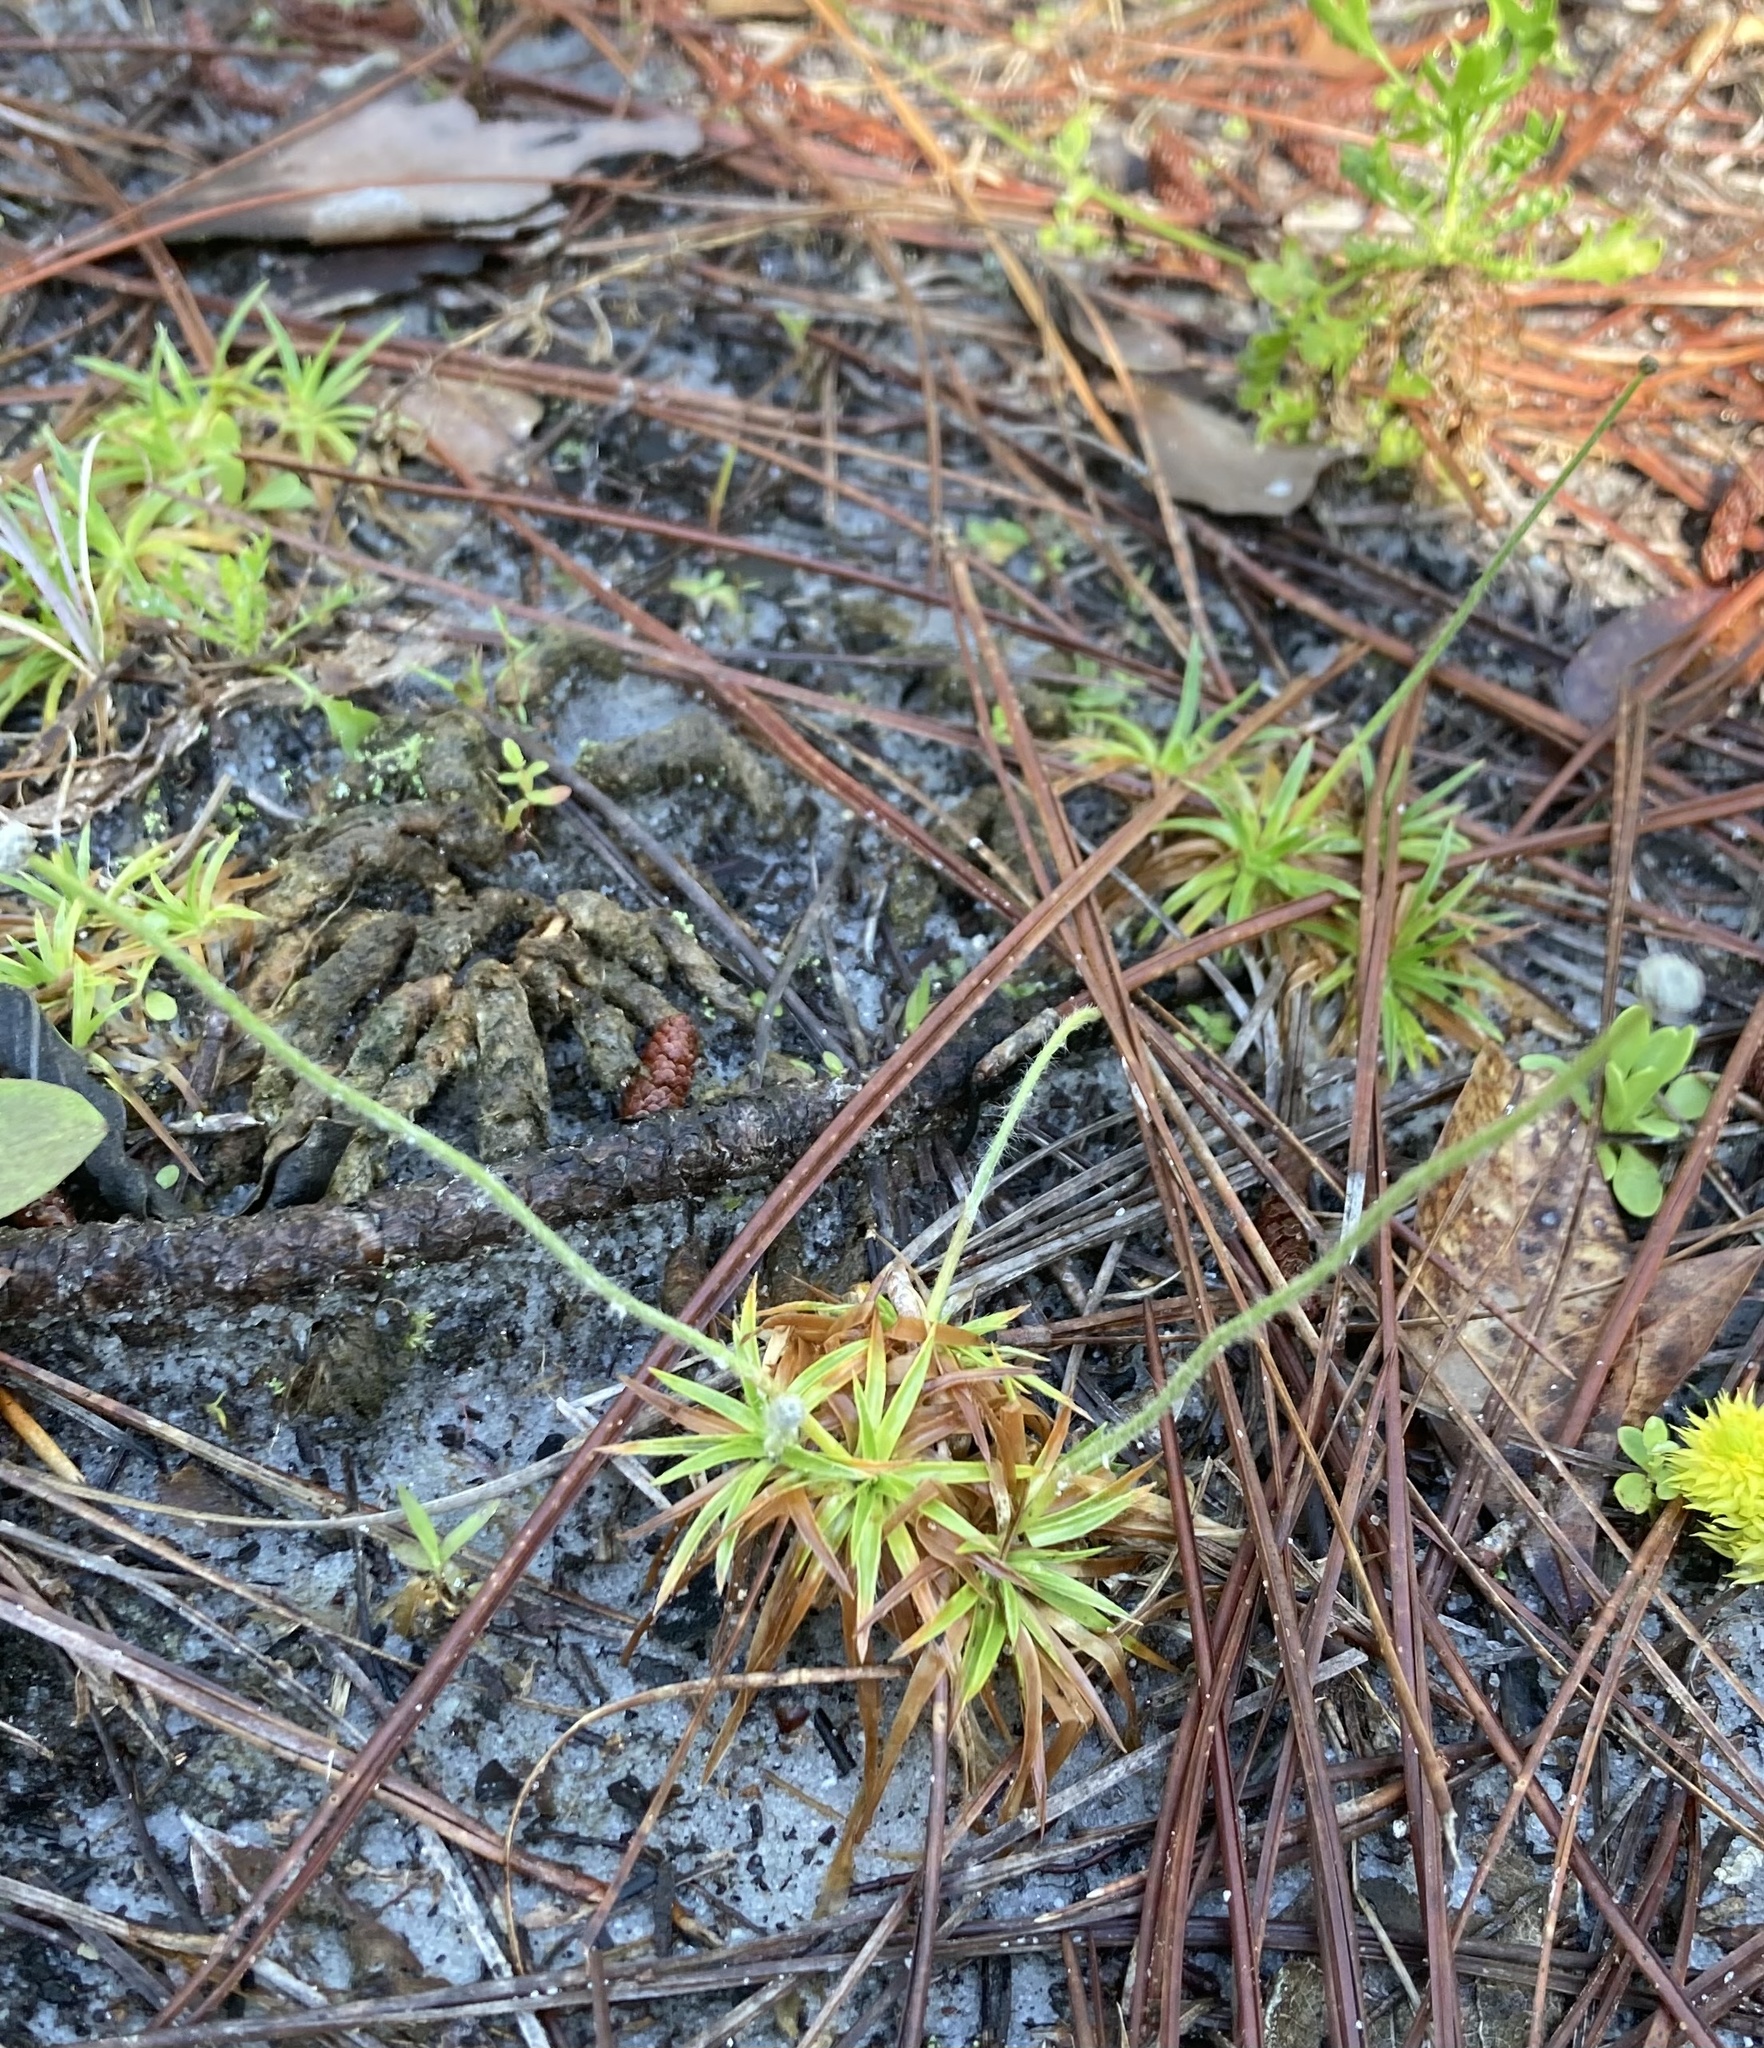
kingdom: Plantae
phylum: Tracheophyta
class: Liliopsida
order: Poales
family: Eriocaulaceae
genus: Paepalanthus
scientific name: Paepalanthus anceps
